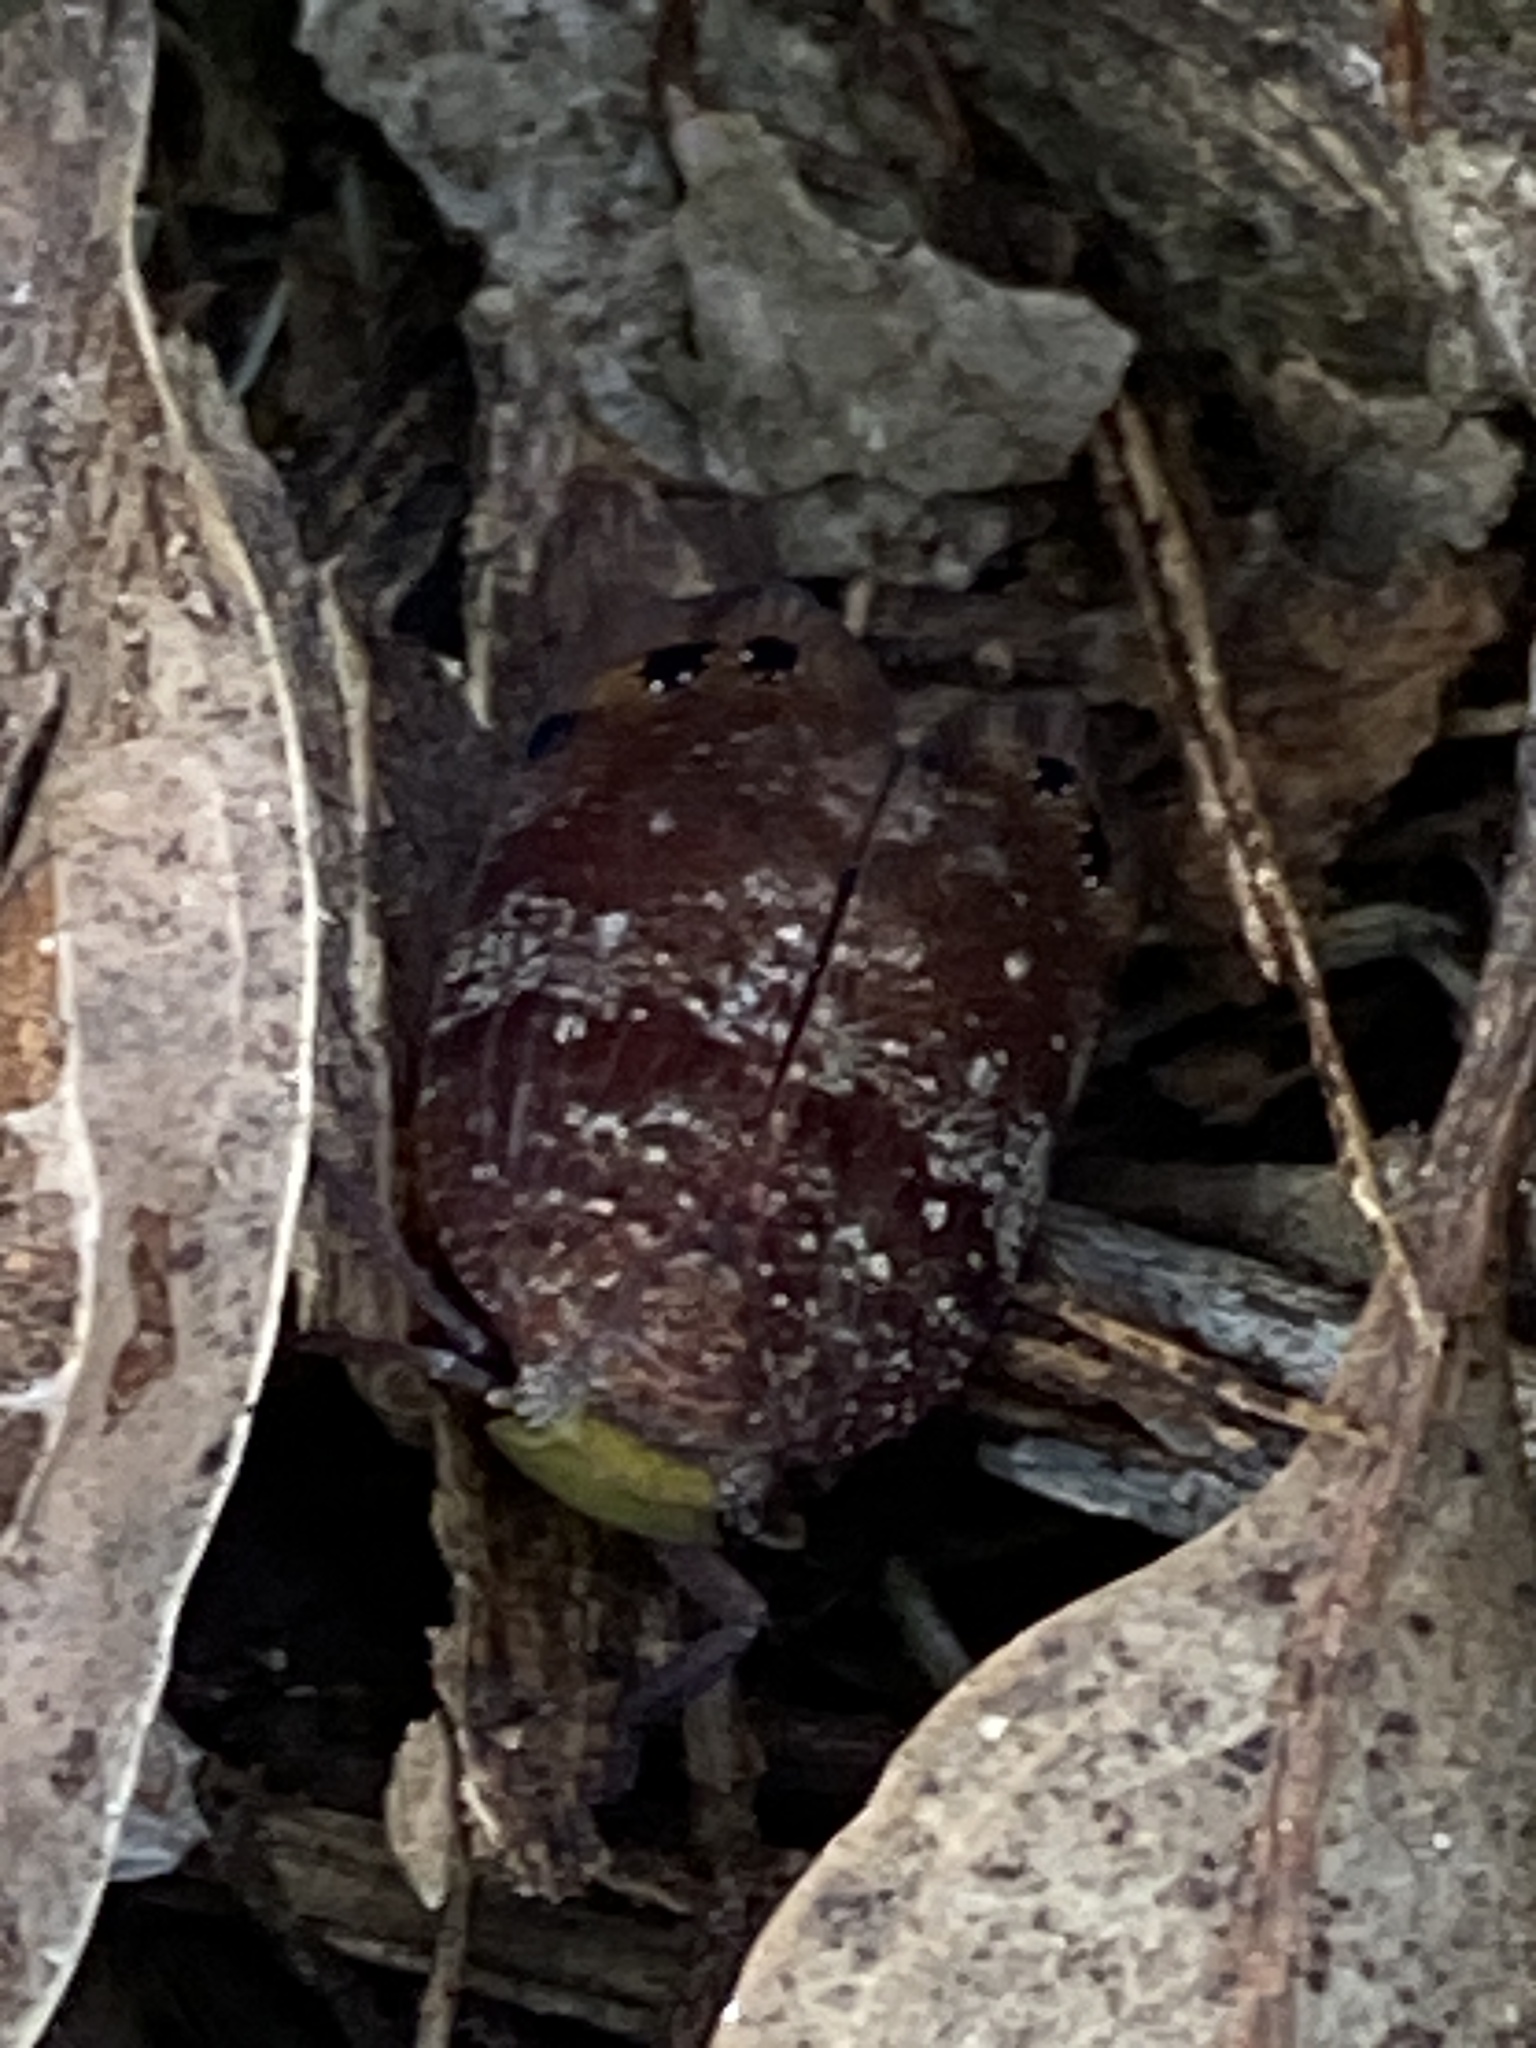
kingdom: Animalia
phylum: Arthropoda
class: Insecta
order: Hemiptera
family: Eurybrachidae
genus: Platybrachys
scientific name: Platybrachys decemmacula
